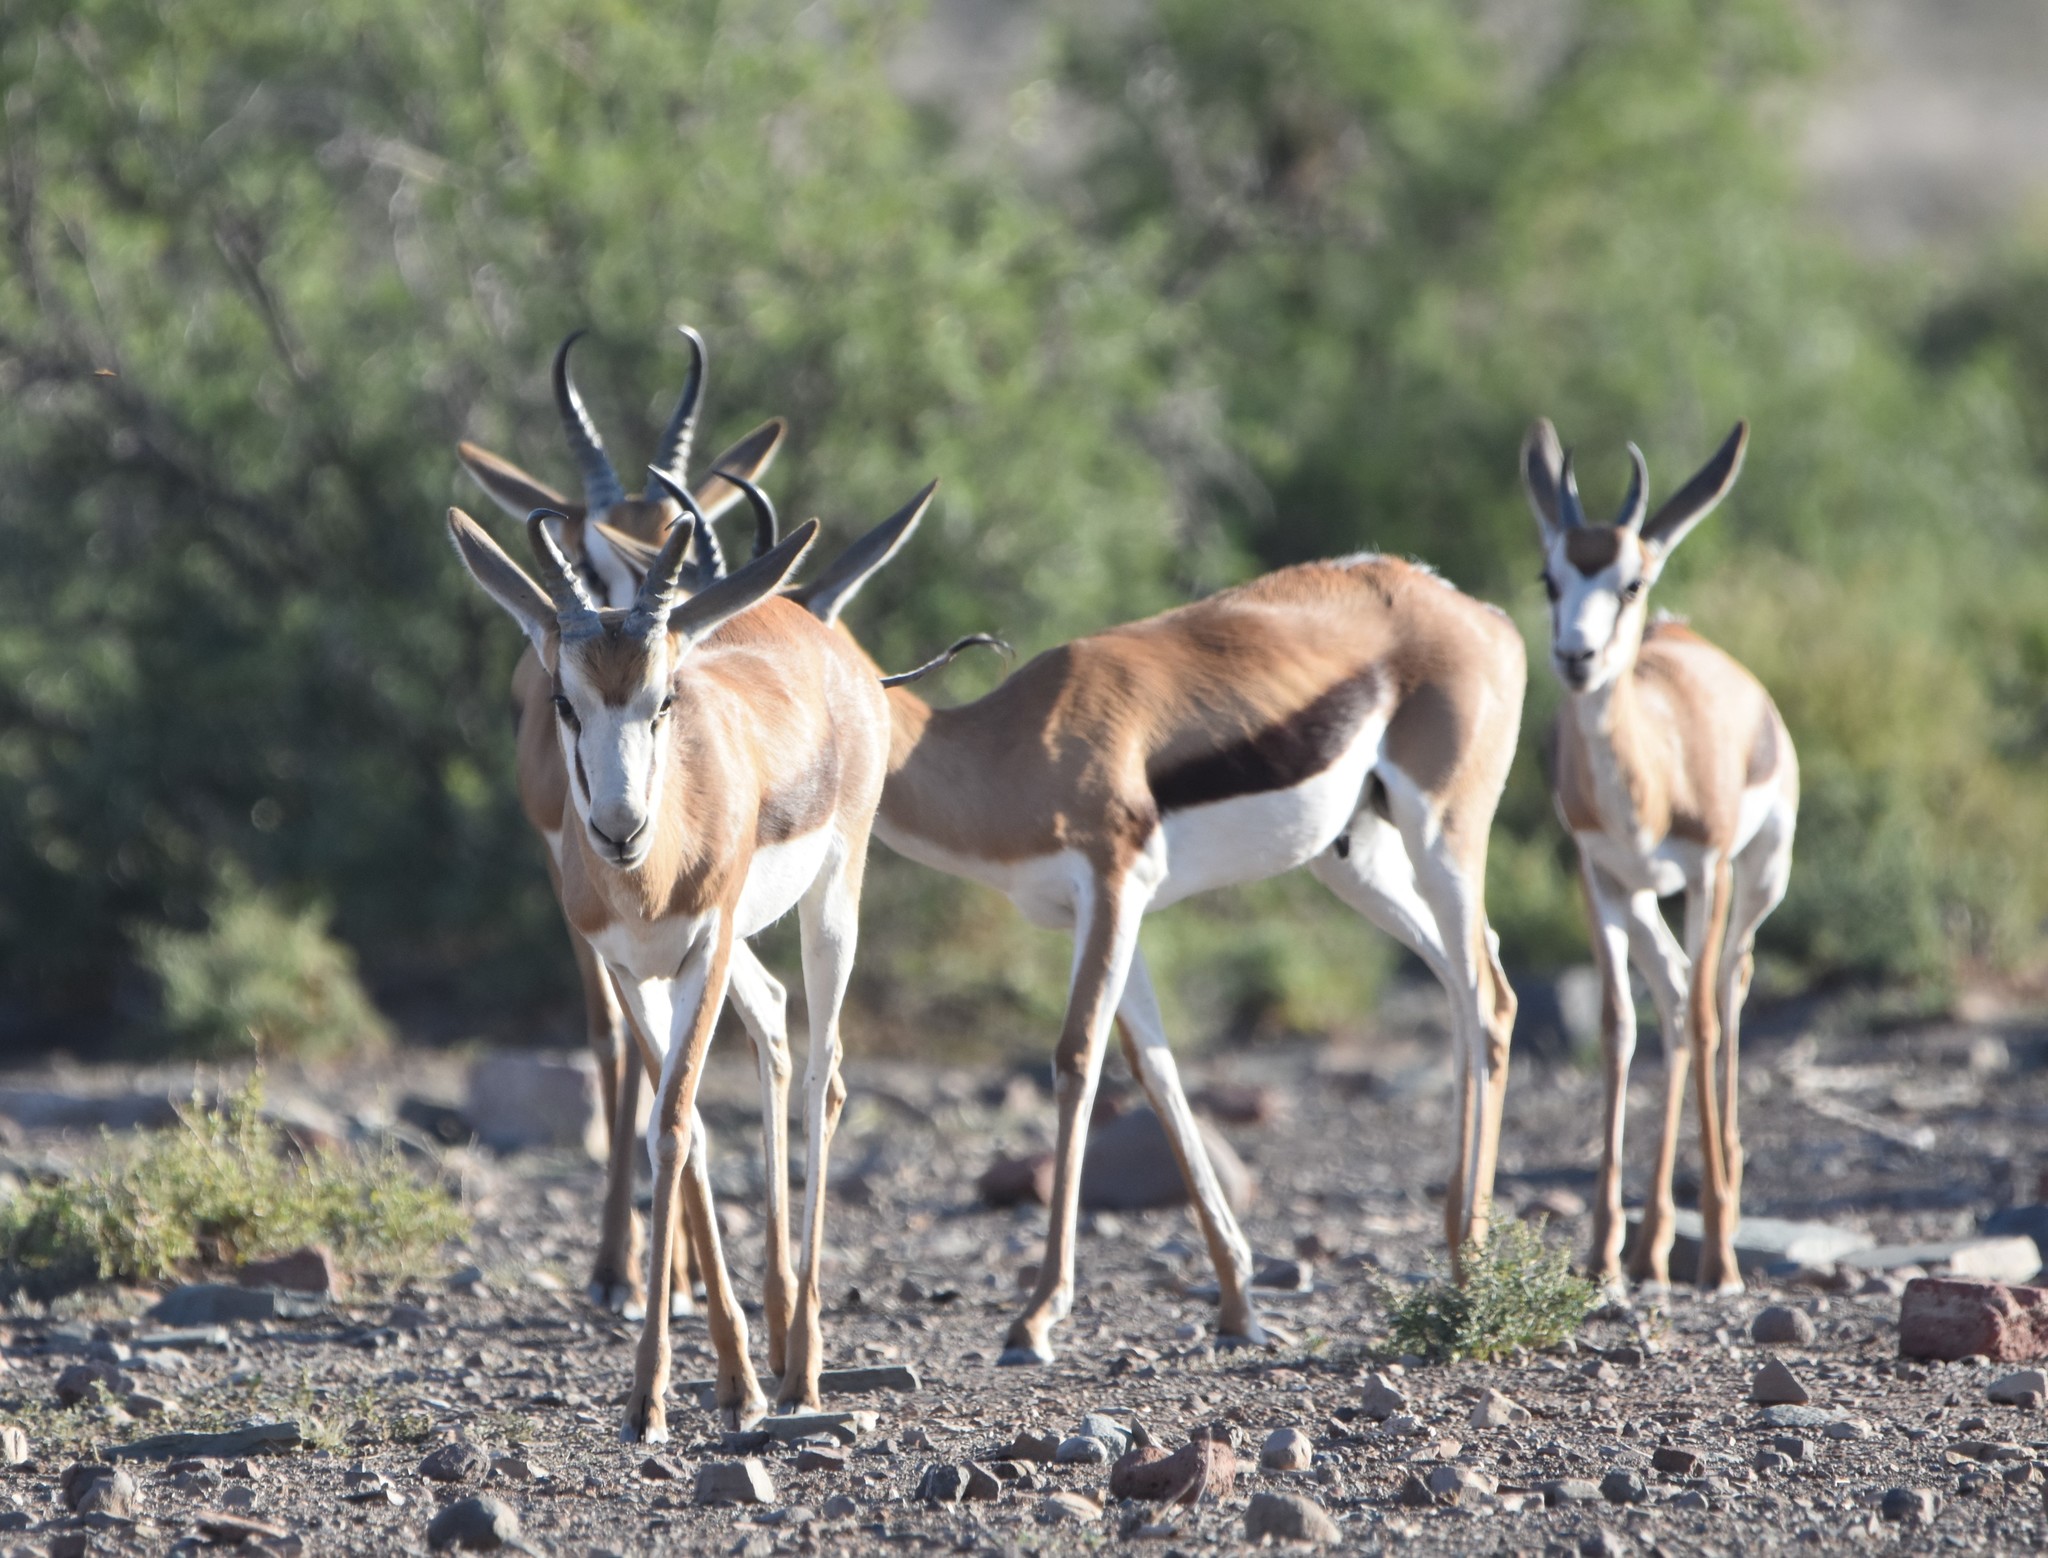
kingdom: Animalia
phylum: Chordata
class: Mammalia
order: Artiodactyla
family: Bovidae
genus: Antidorcas
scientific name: Antidorcas marsupialis
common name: Springbok
